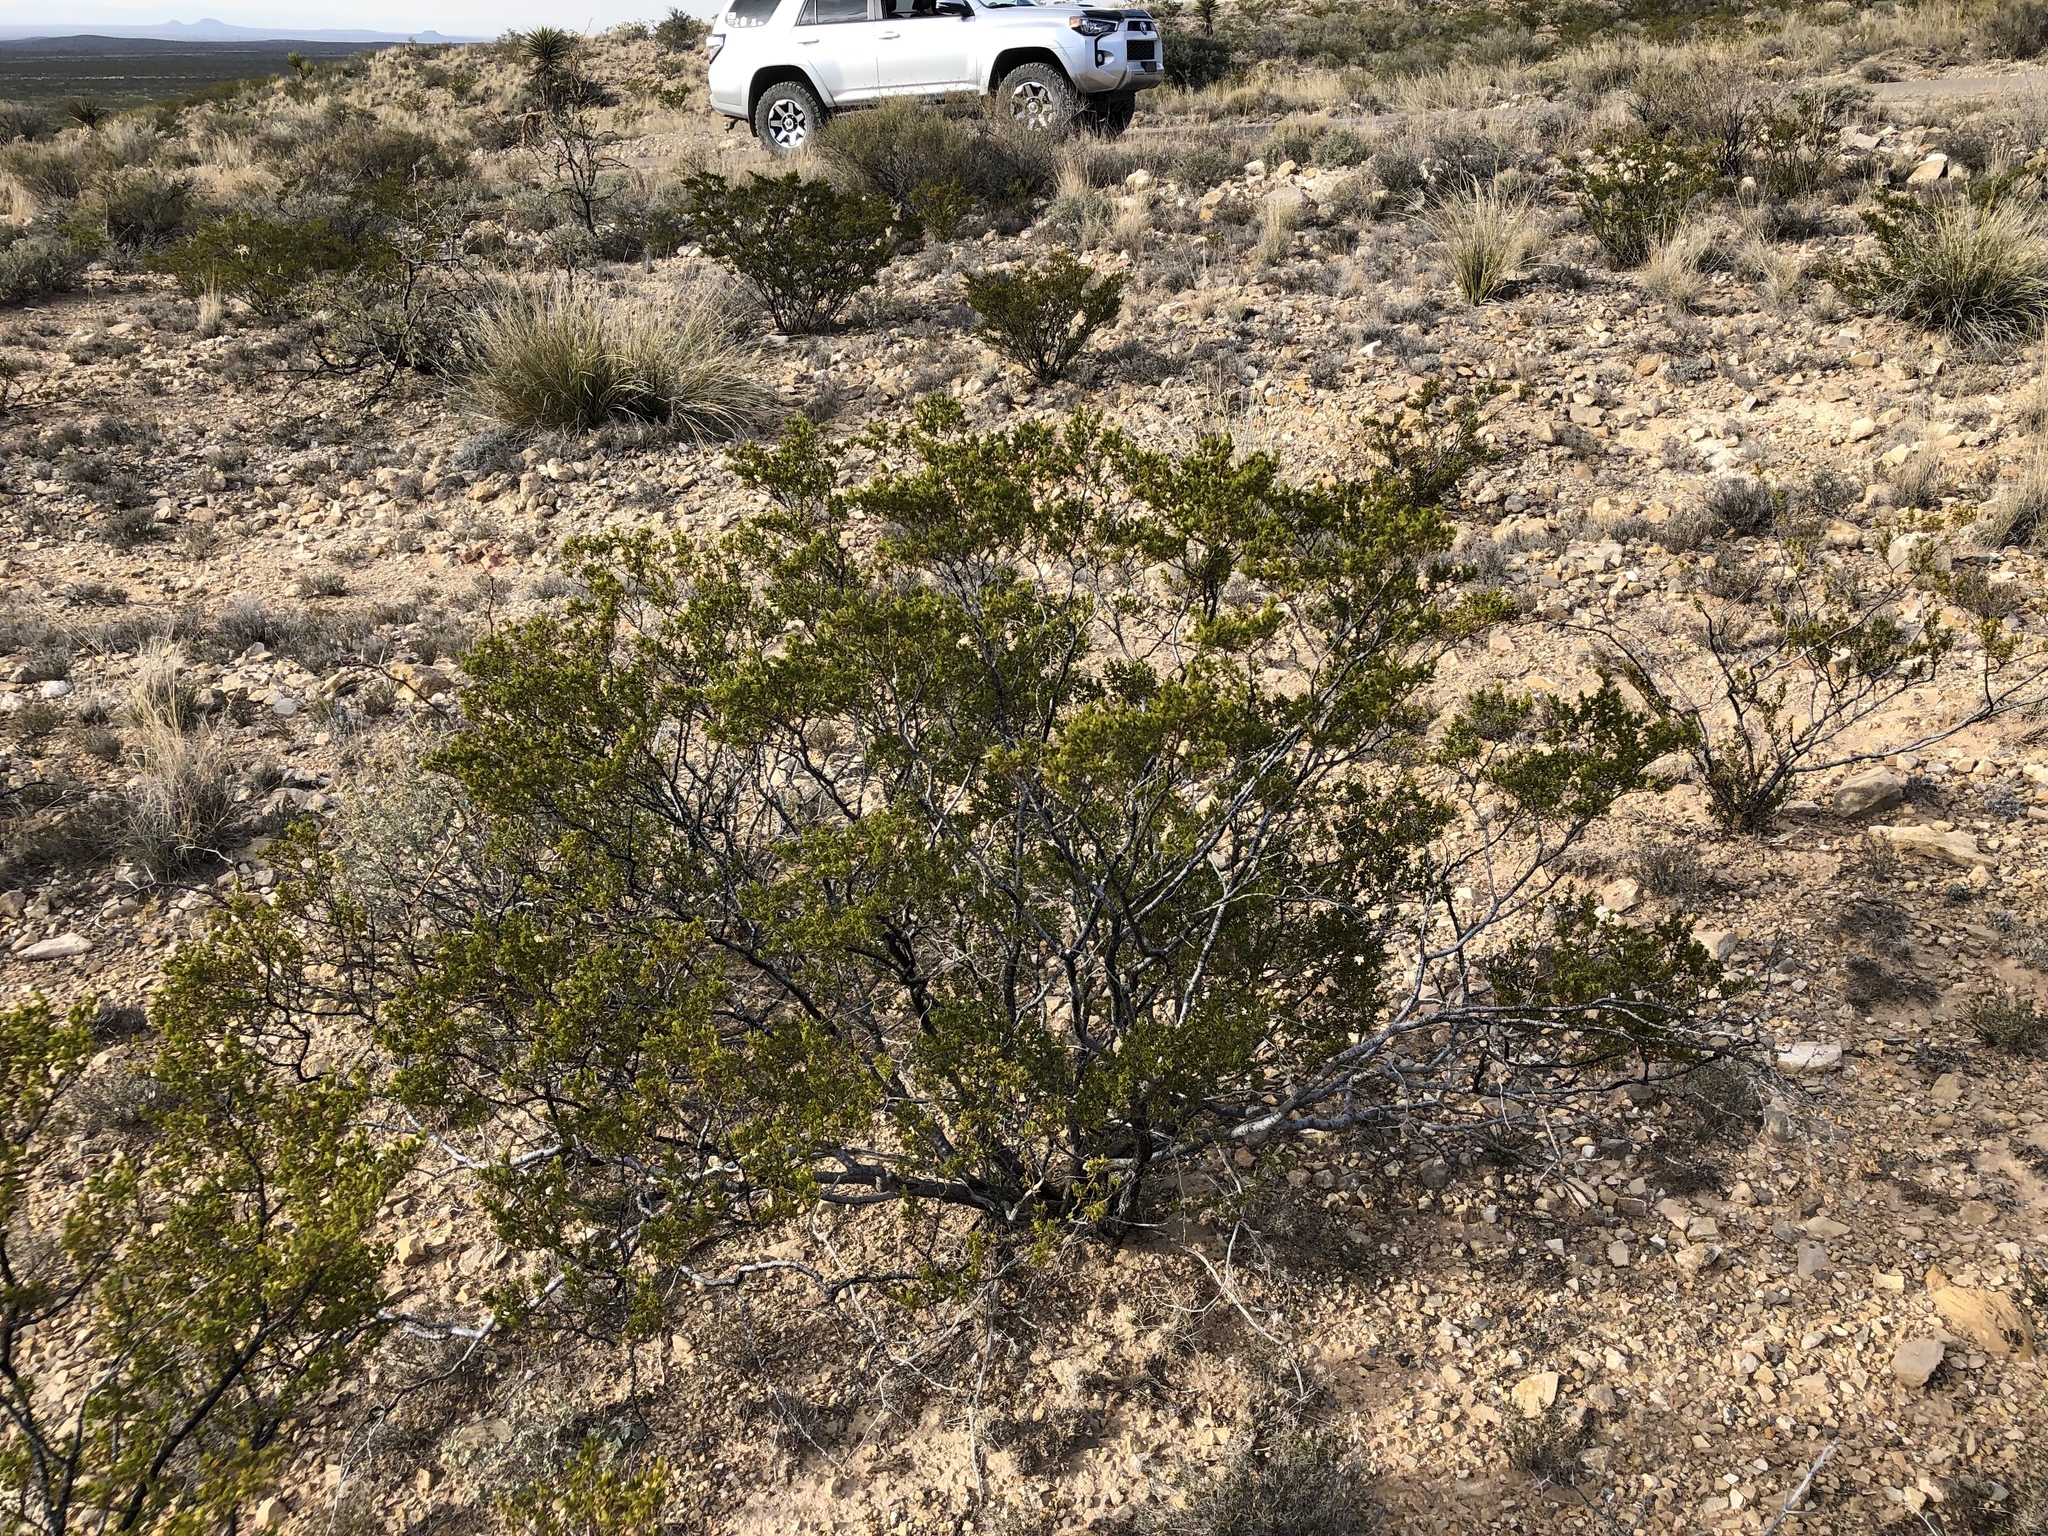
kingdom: Plantae
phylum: Tracheophyta
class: Magnoliopsida
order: Zygophyllales
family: Zygophyllaceae
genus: Larrea
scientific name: Larrea tridentata
